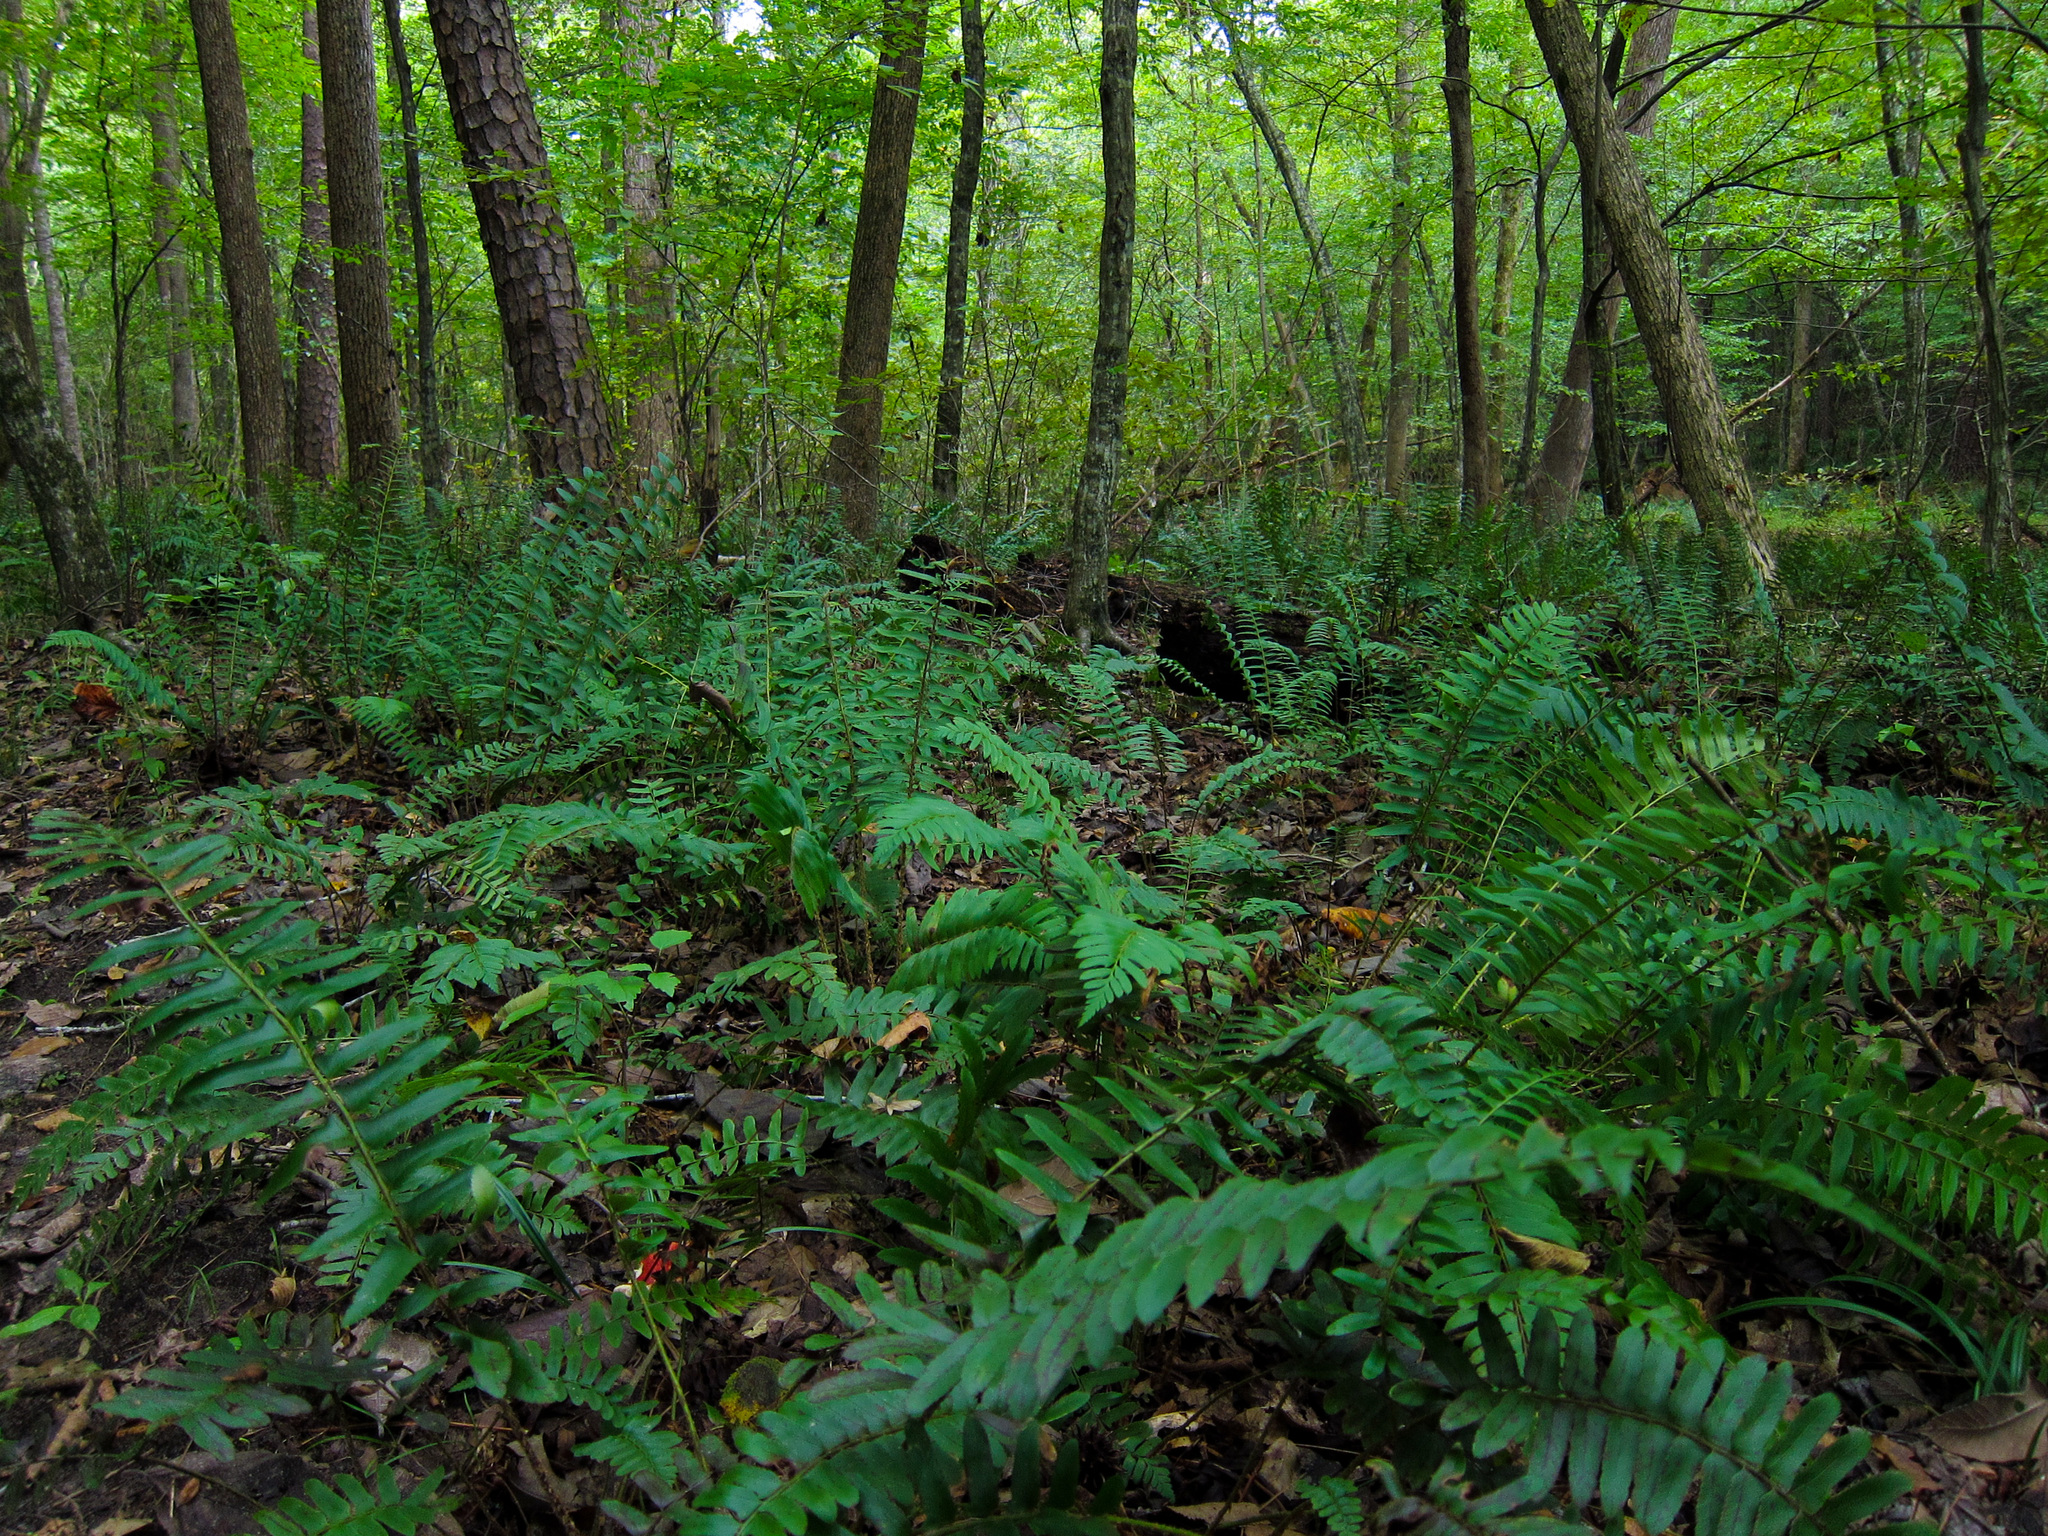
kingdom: Plantae
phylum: Tracheophyta
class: Polypodiopsida
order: Polypodiales
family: Dryopteridaceae
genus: Polystichum
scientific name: Polystichum acrostichoides
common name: Christmas fern
